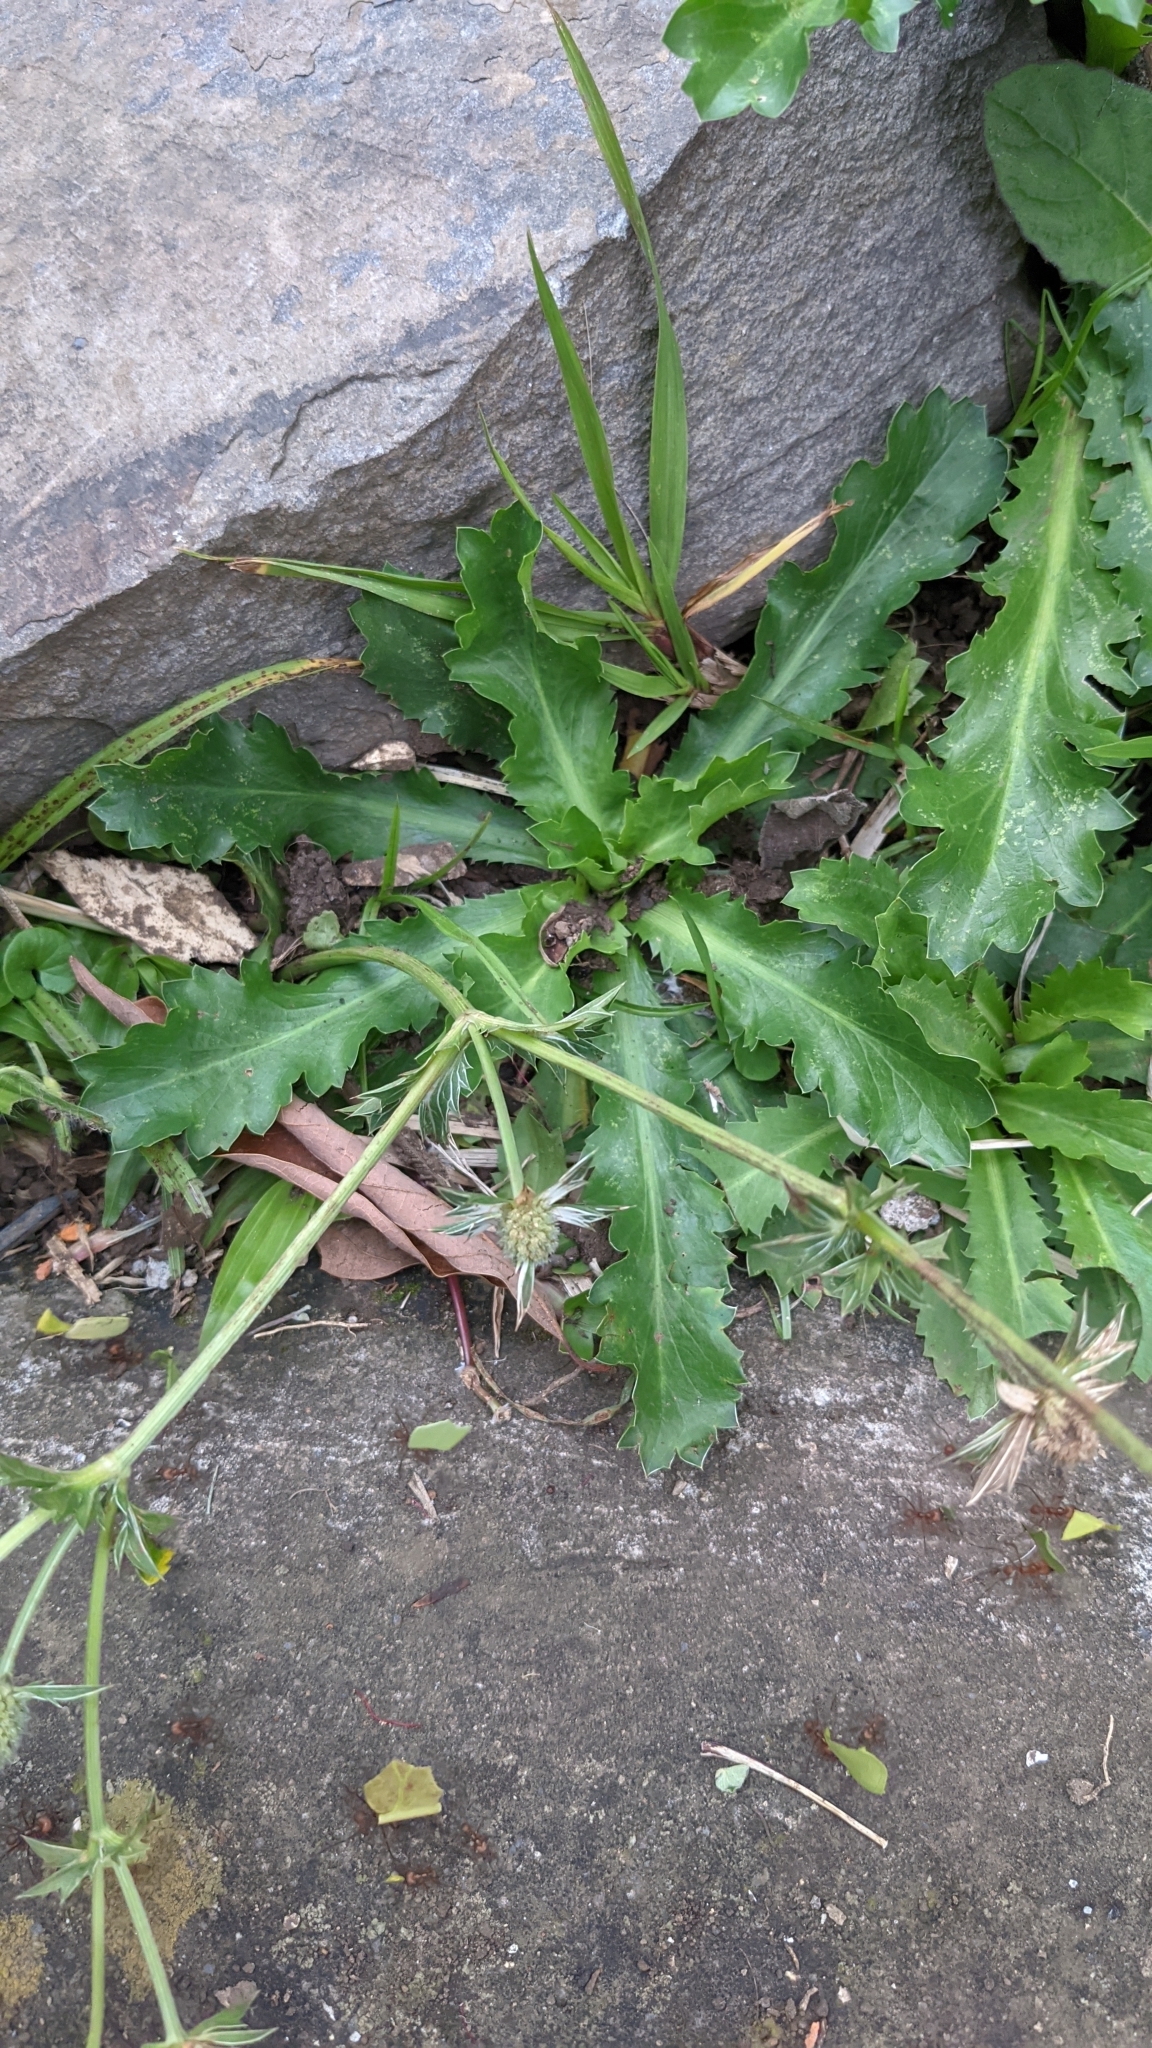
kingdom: Plantae
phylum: Tracheophyta
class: Magnoliopsida
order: Apiales
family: Apiaceae
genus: Eryngium
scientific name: Eryngium carlinae
